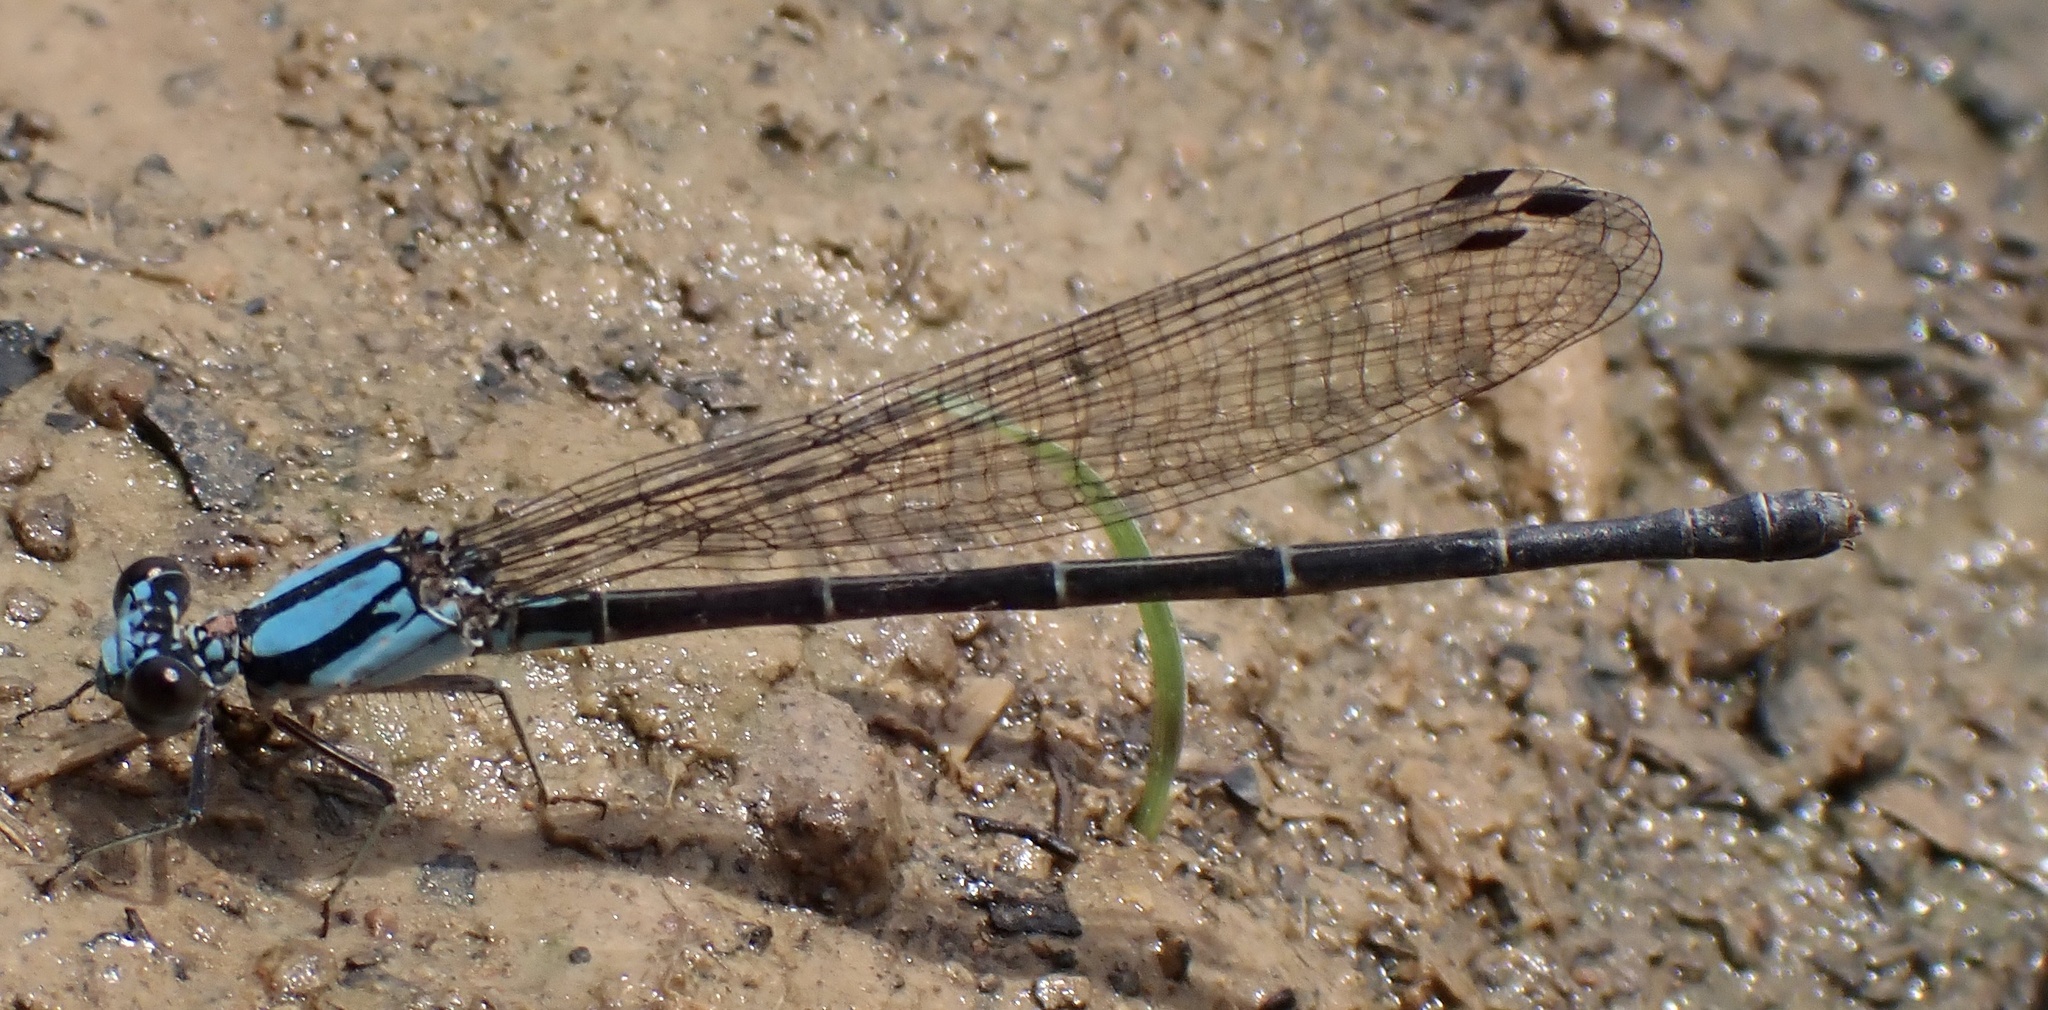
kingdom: Animalia
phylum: Arthropoda
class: Insecta
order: Odonata
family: Coenagrionidae
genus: Argia
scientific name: Argia tibialis
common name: Blue-tipped dancer
